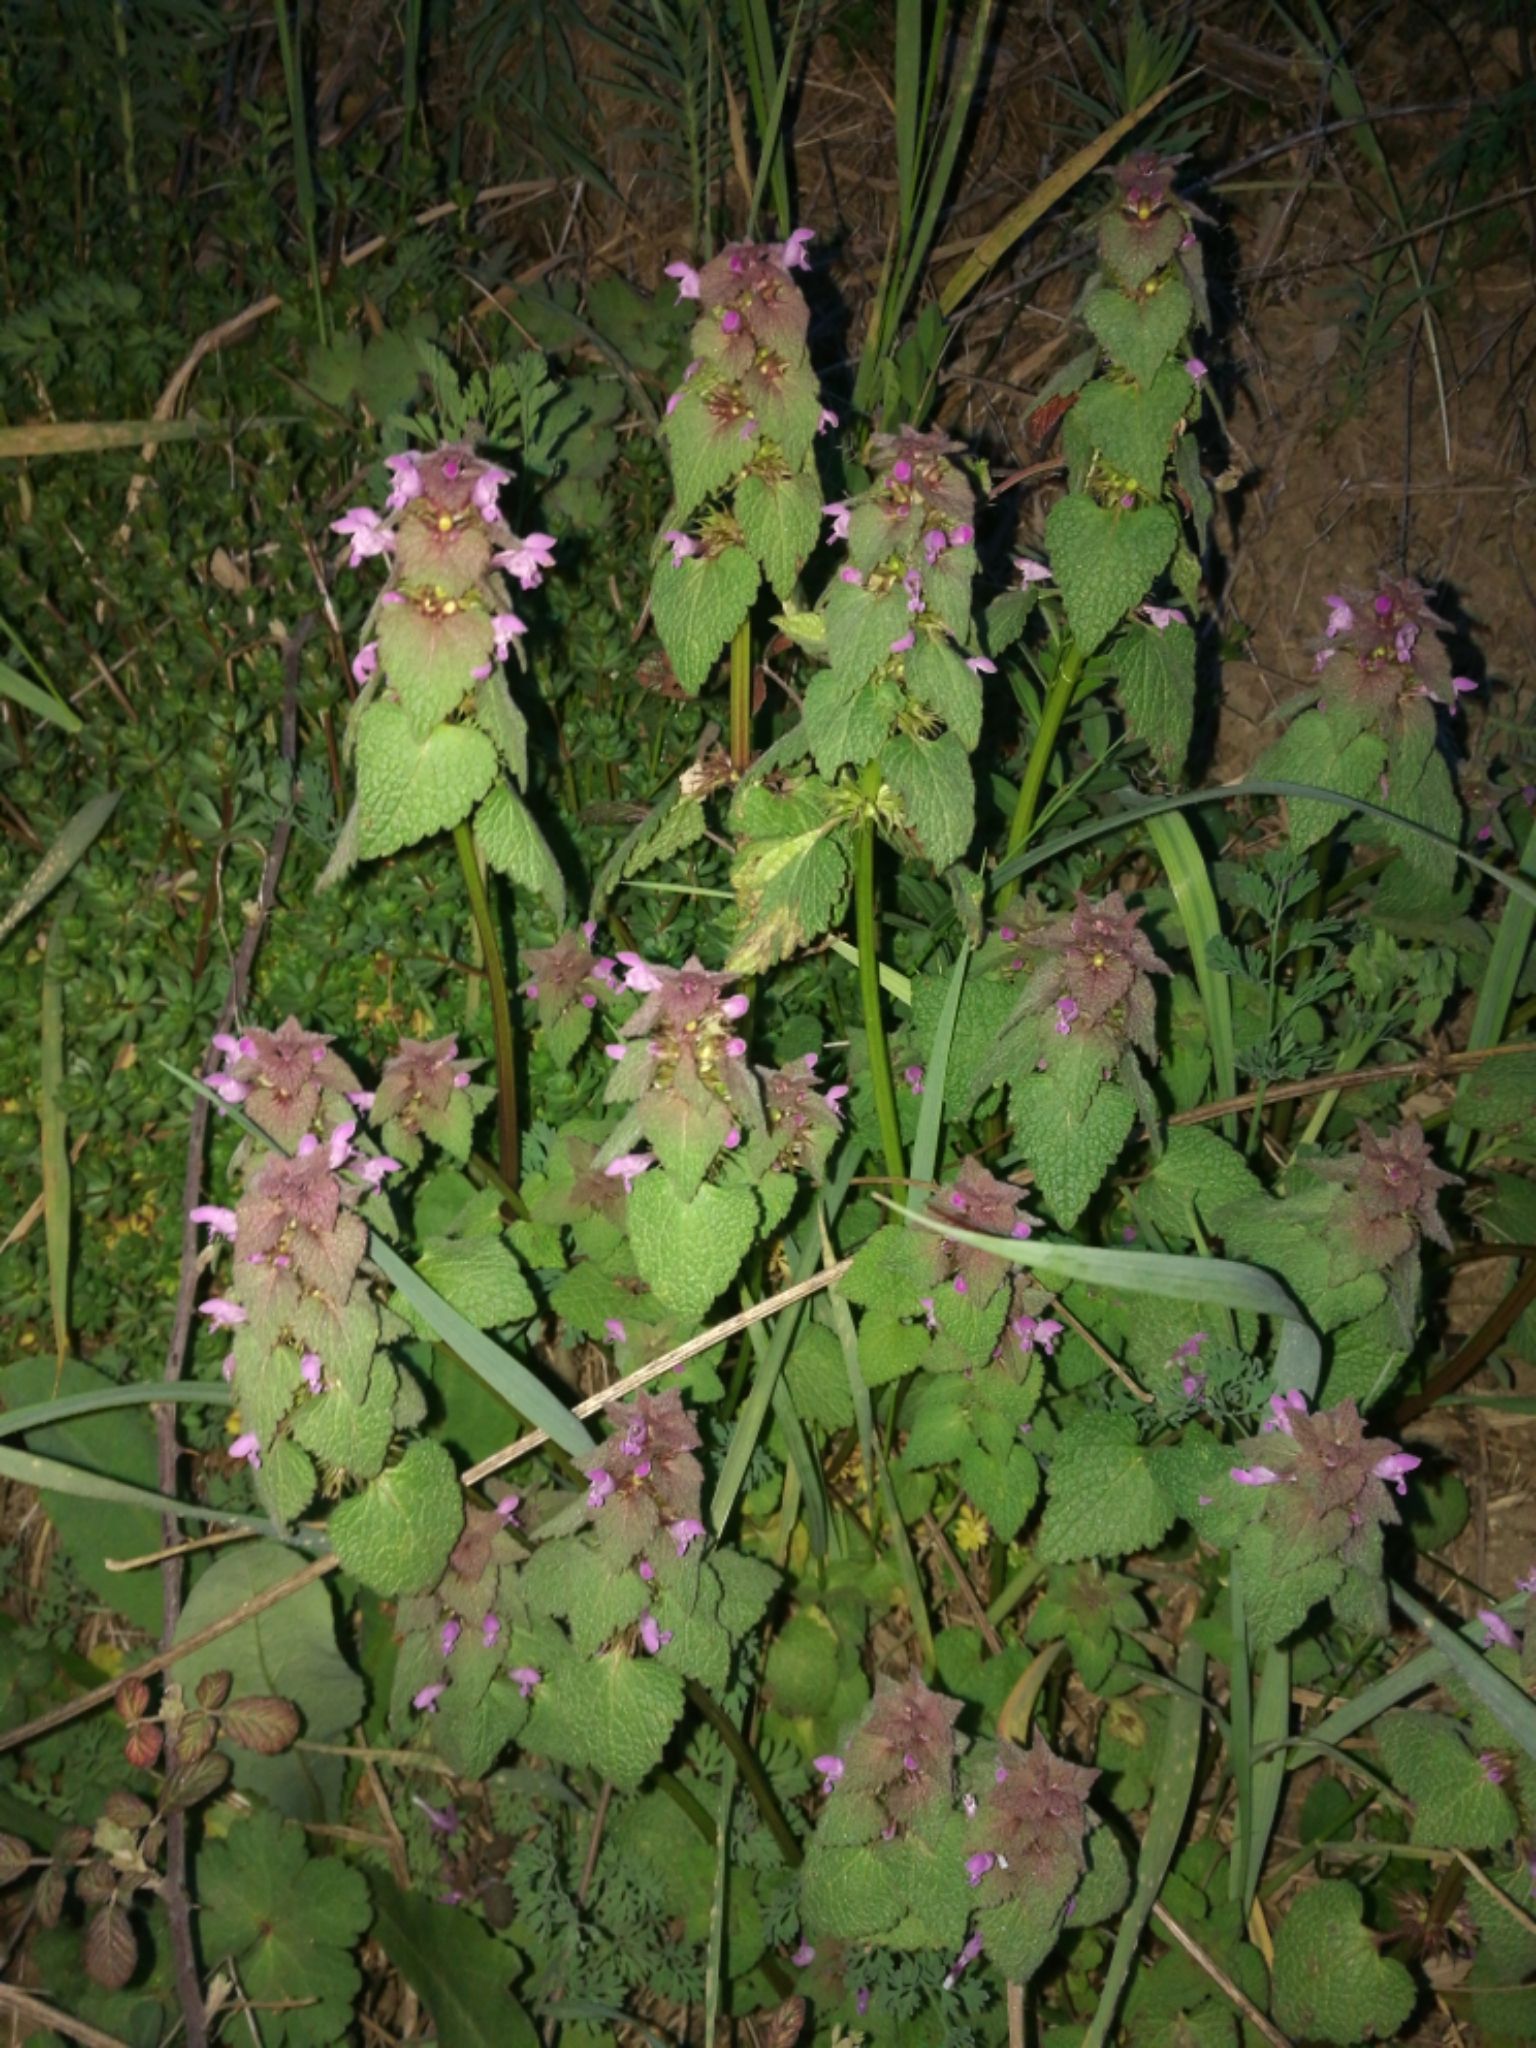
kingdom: Plantae
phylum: Tracheophyta
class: Magnoliopsida
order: Lamiales
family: Lamiaceae
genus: Lamium
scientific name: Lamium purpureum
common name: Red dead-nettle
